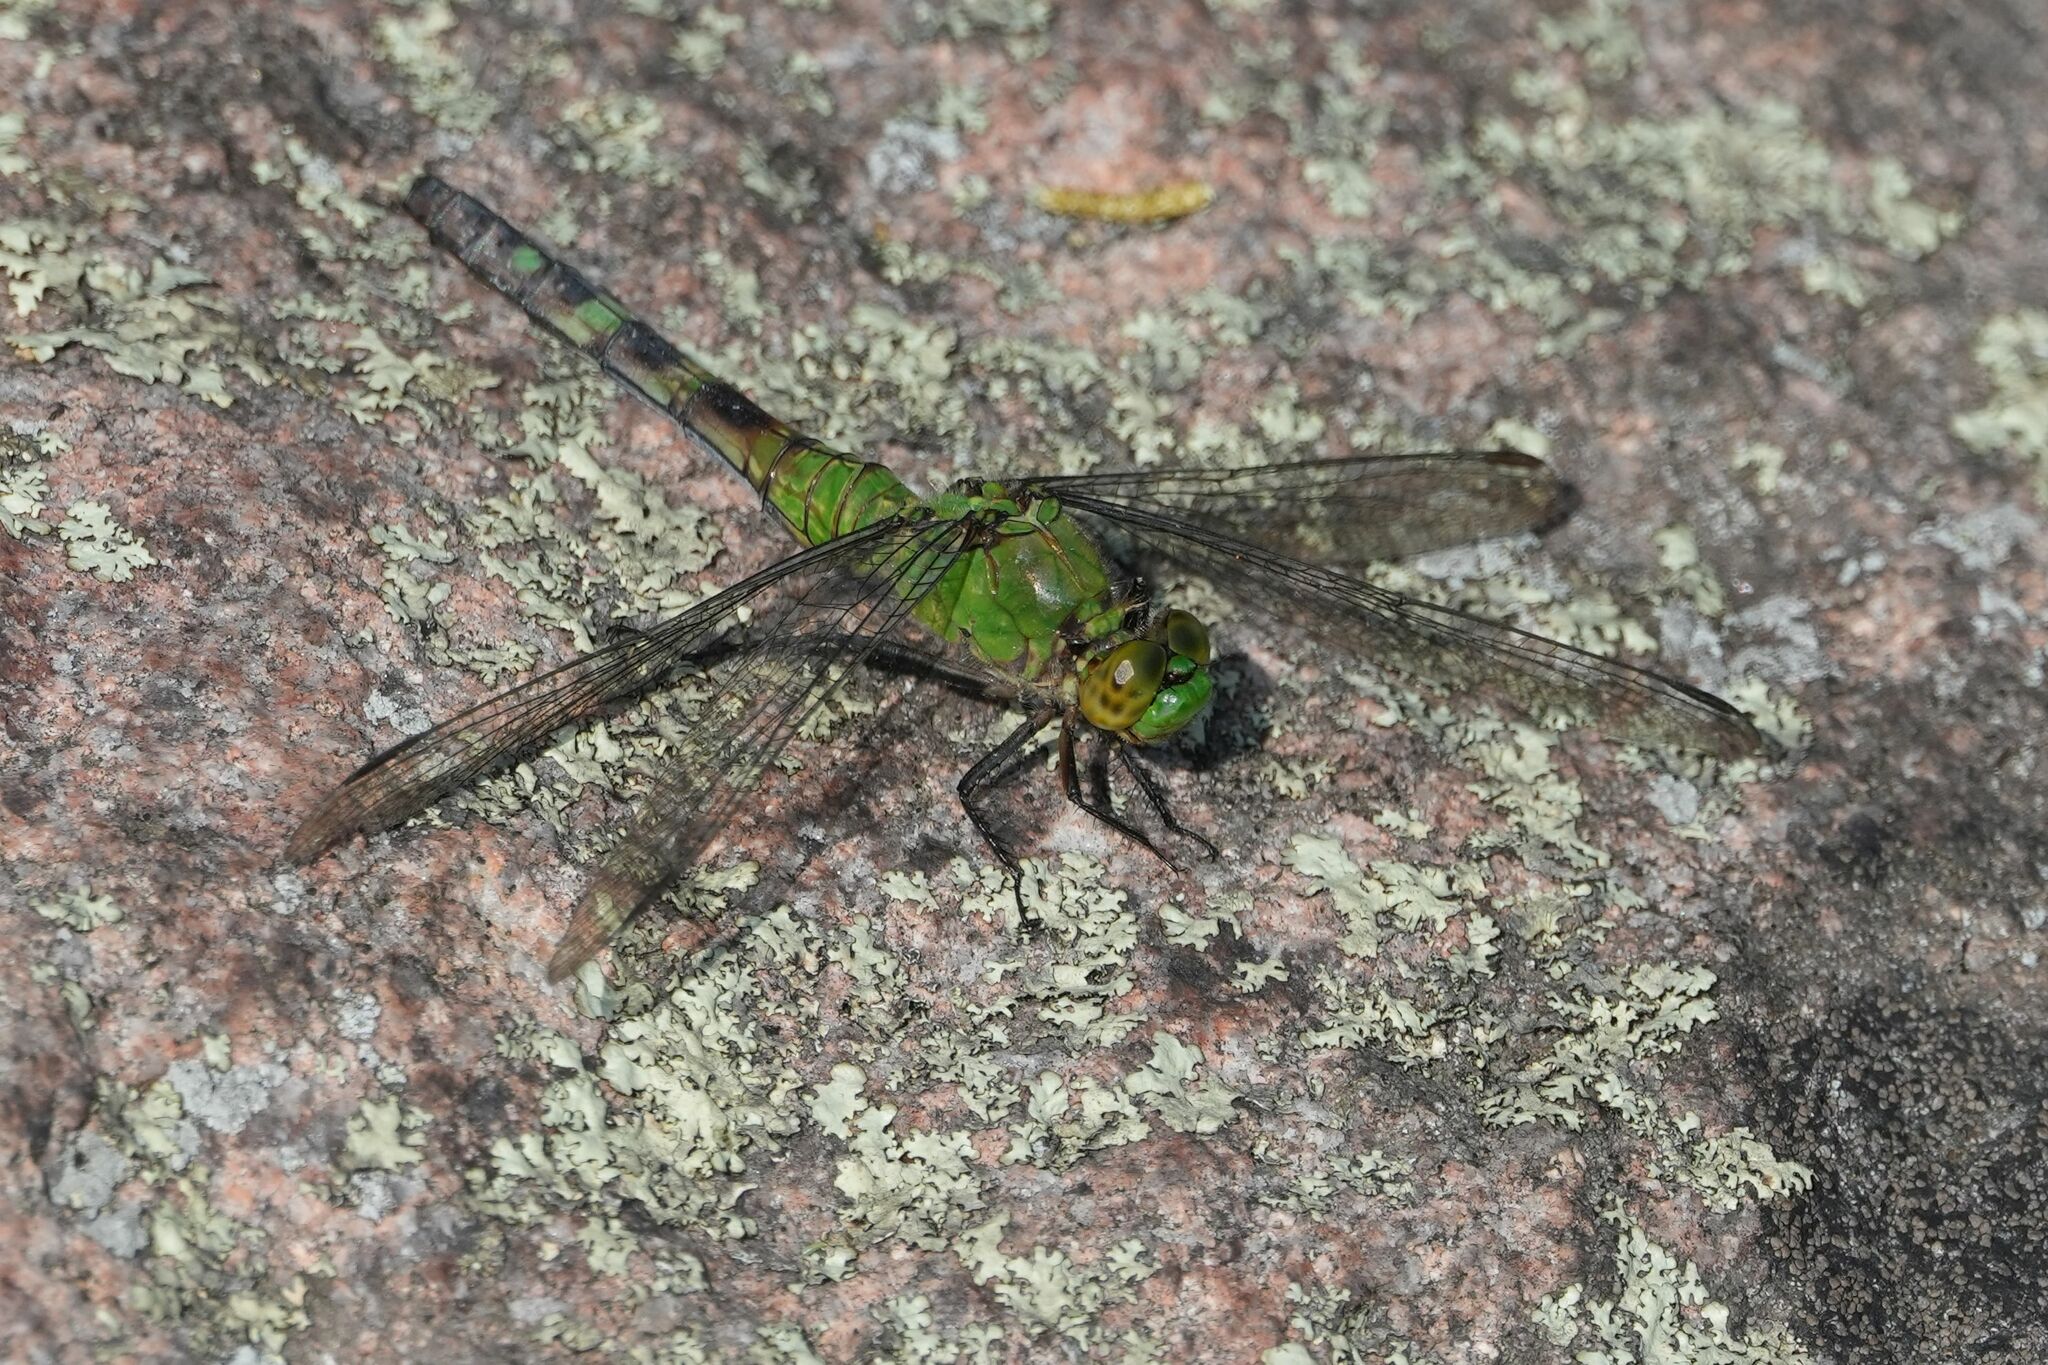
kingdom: Animalia
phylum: Arthropoda
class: Insecta
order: Odonata
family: Libellulidae
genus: Erythemis
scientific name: Erythemis simplicicollis
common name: Eastern pondhawk
